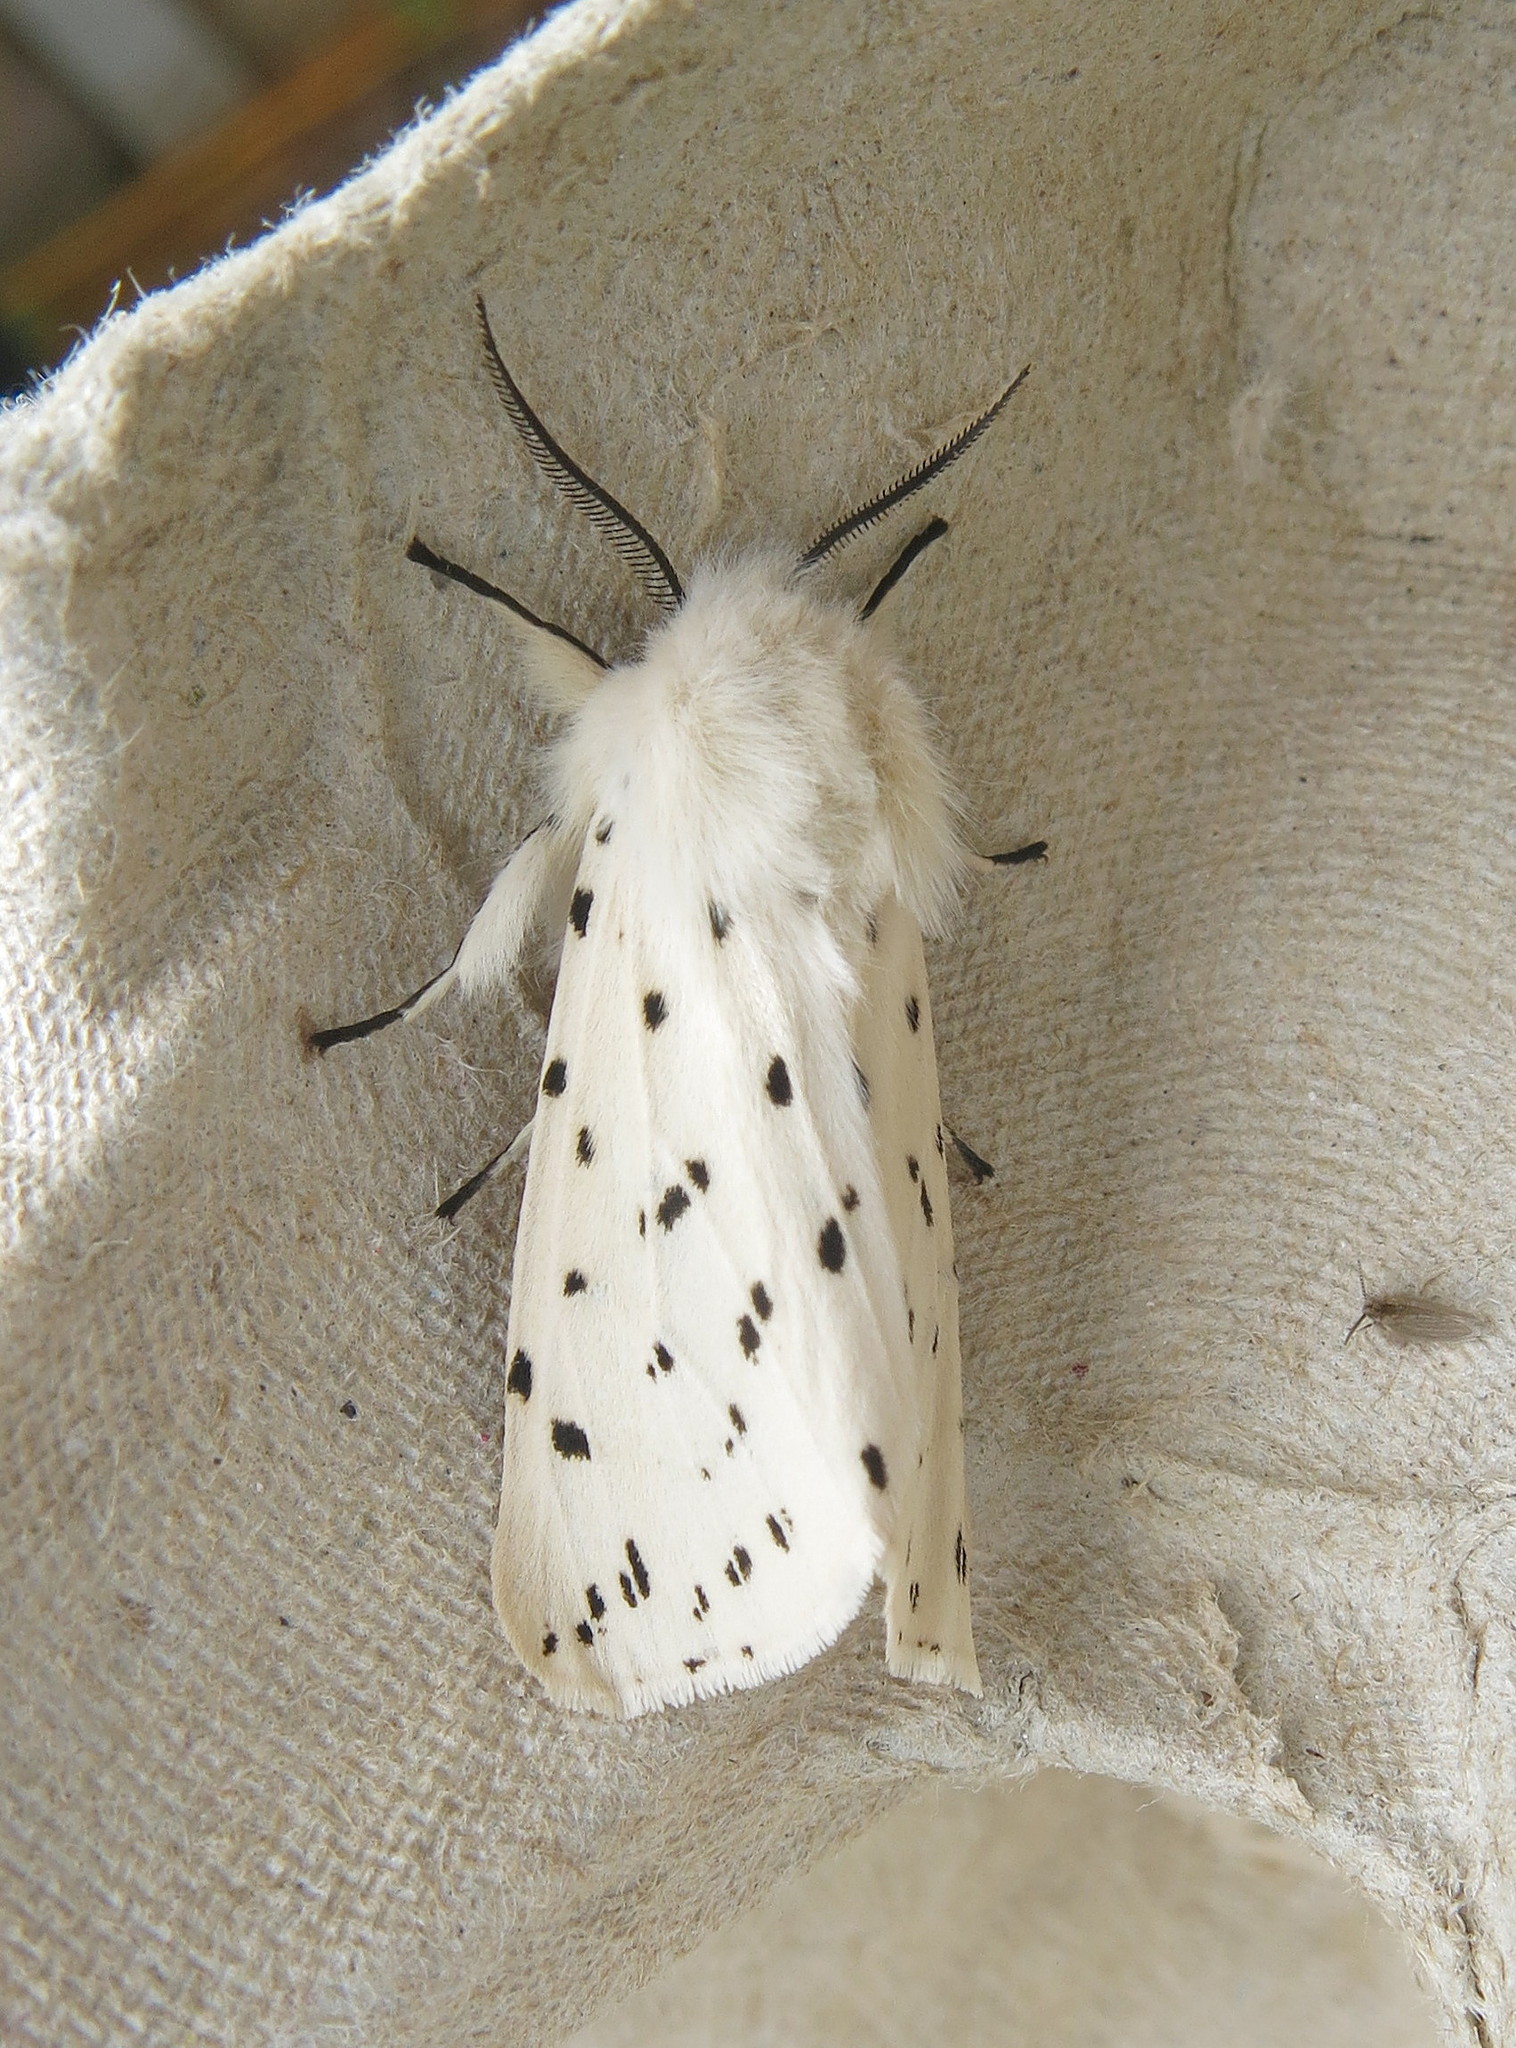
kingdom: Animalia
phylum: Arthropoda
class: Insecta
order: Lepidoptera
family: Erebidae
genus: Spilosoma
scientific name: Spilosoma lubricipeda
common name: White ermine
